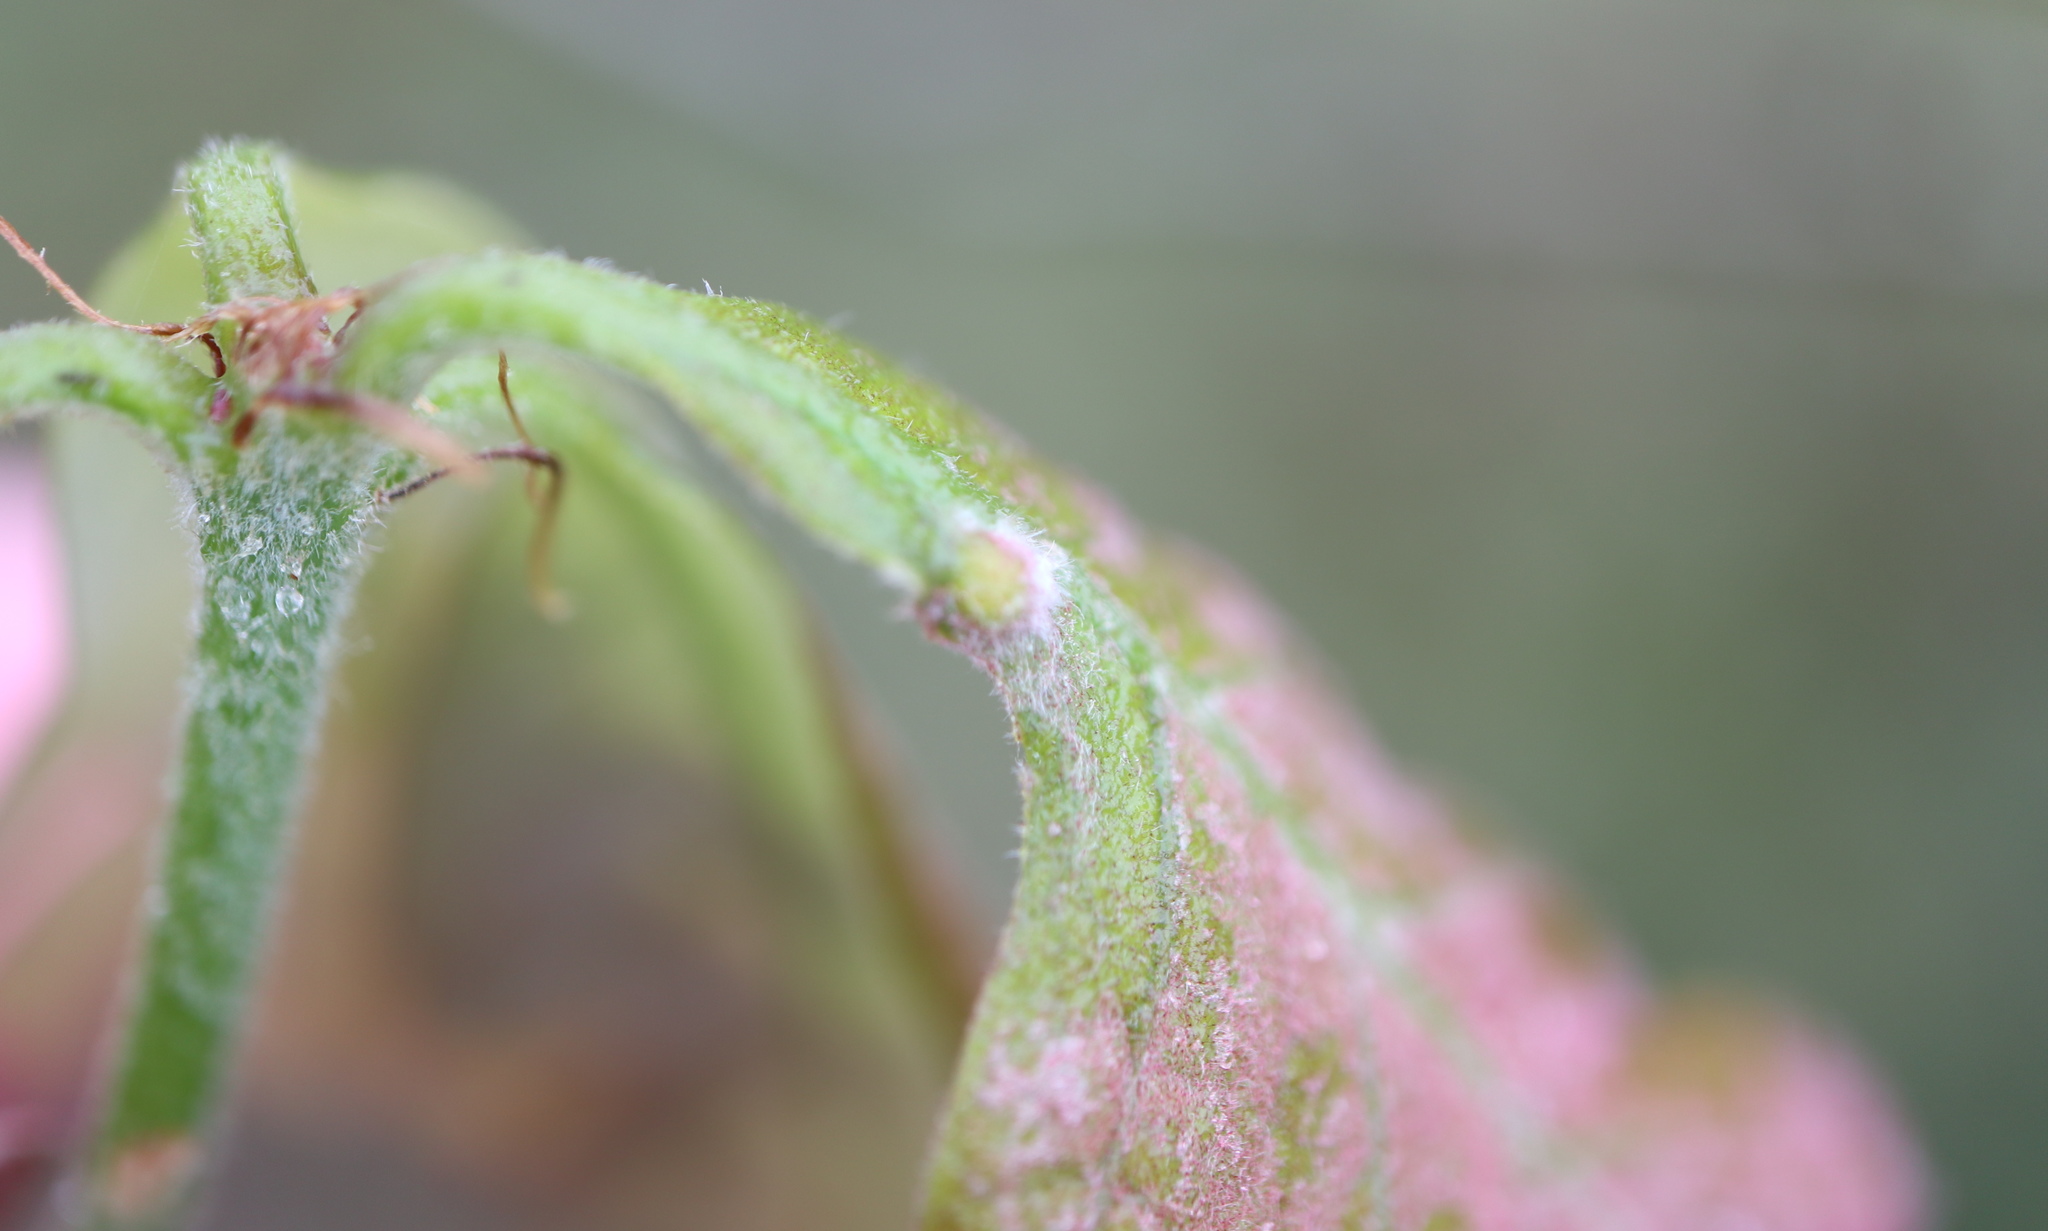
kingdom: Animalia
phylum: Arthropoda
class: Insecta
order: Hymenoptera
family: Cynipidae
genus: Neuroterus
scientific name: Neuroterus
